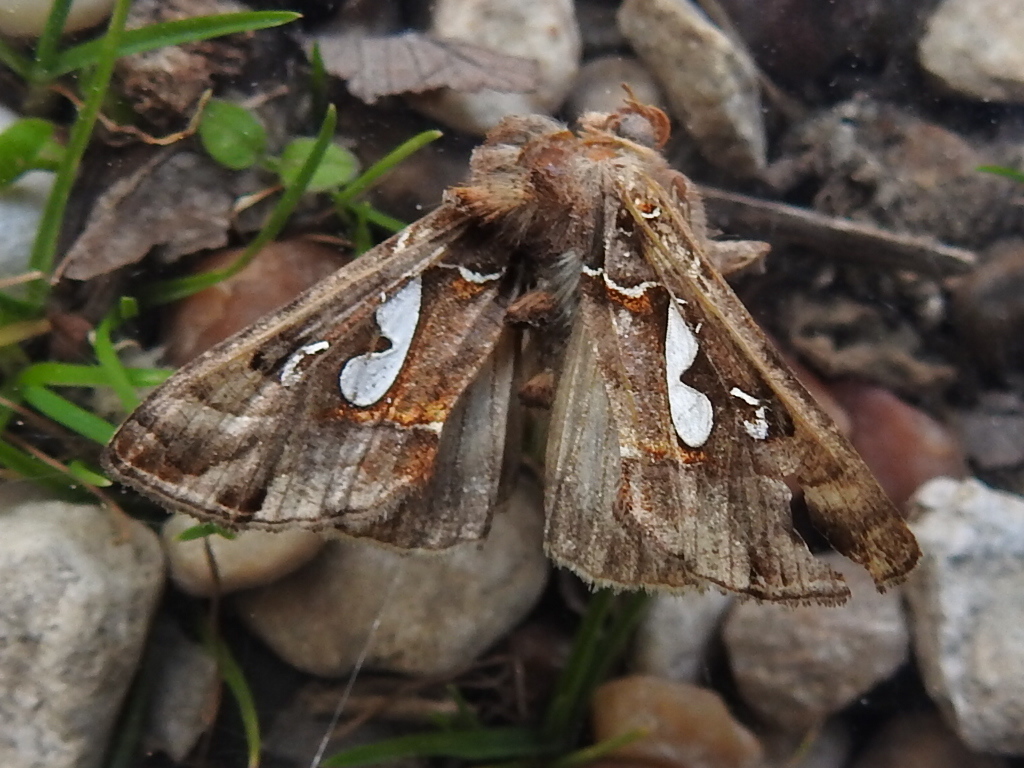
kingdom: Animalia
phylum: Arthropoda
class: Insecta
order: Lepidoptera
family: Noctuidae
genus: Megalographa
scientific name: Megalographa biloba
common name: Cutworm
